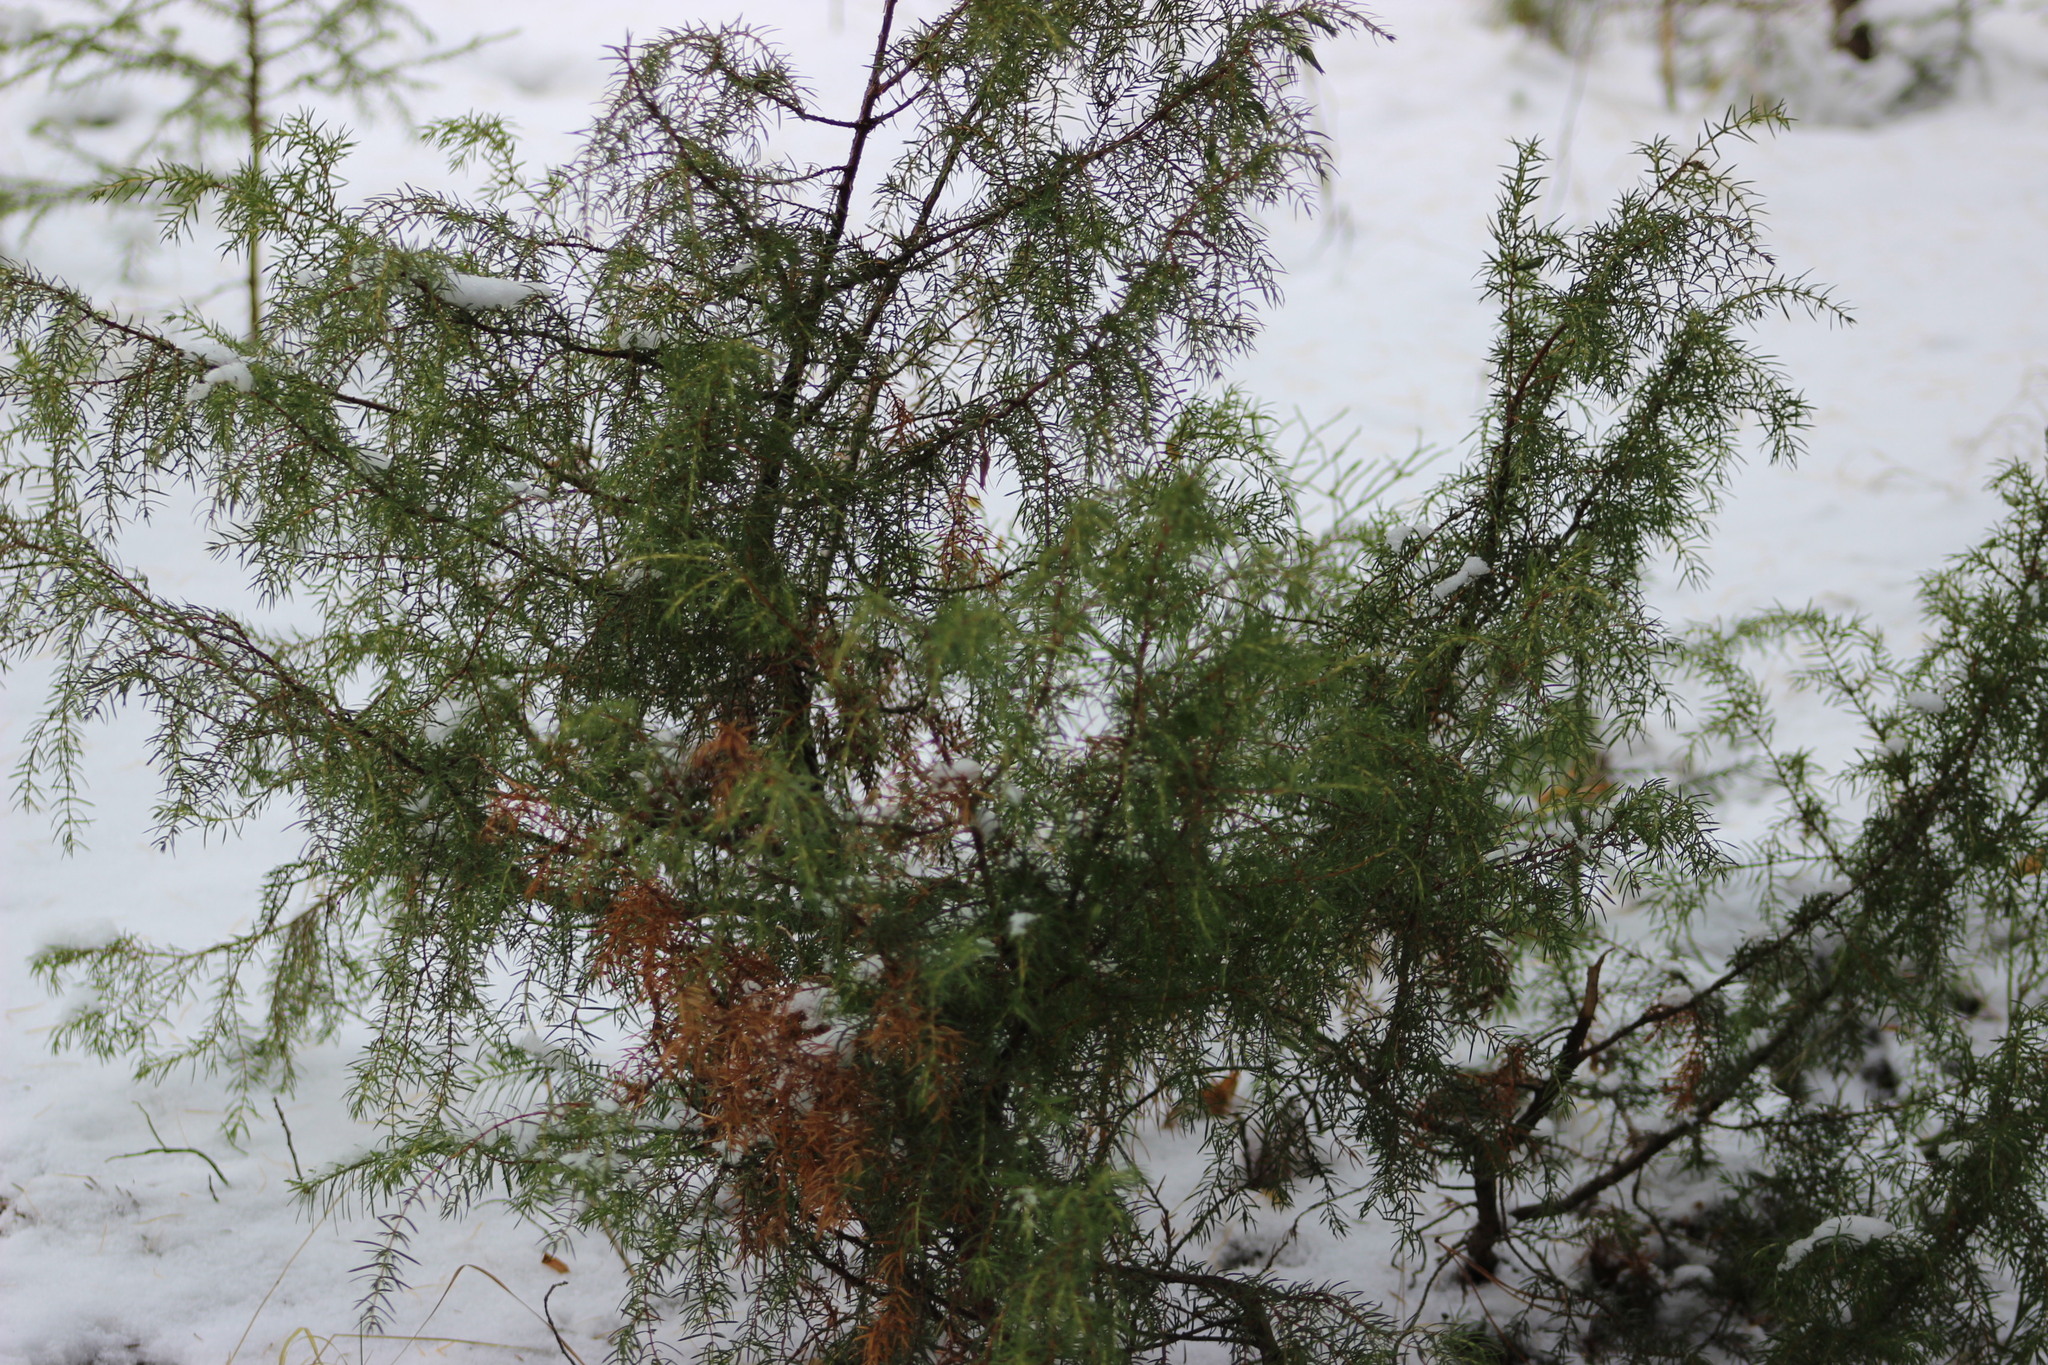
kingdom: Plantae
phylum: Tracheophyta
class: Pinopsida
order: Pinales
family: Cupressaceae
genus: Juniperus
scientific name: Juniperus communis
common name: Common juniper
